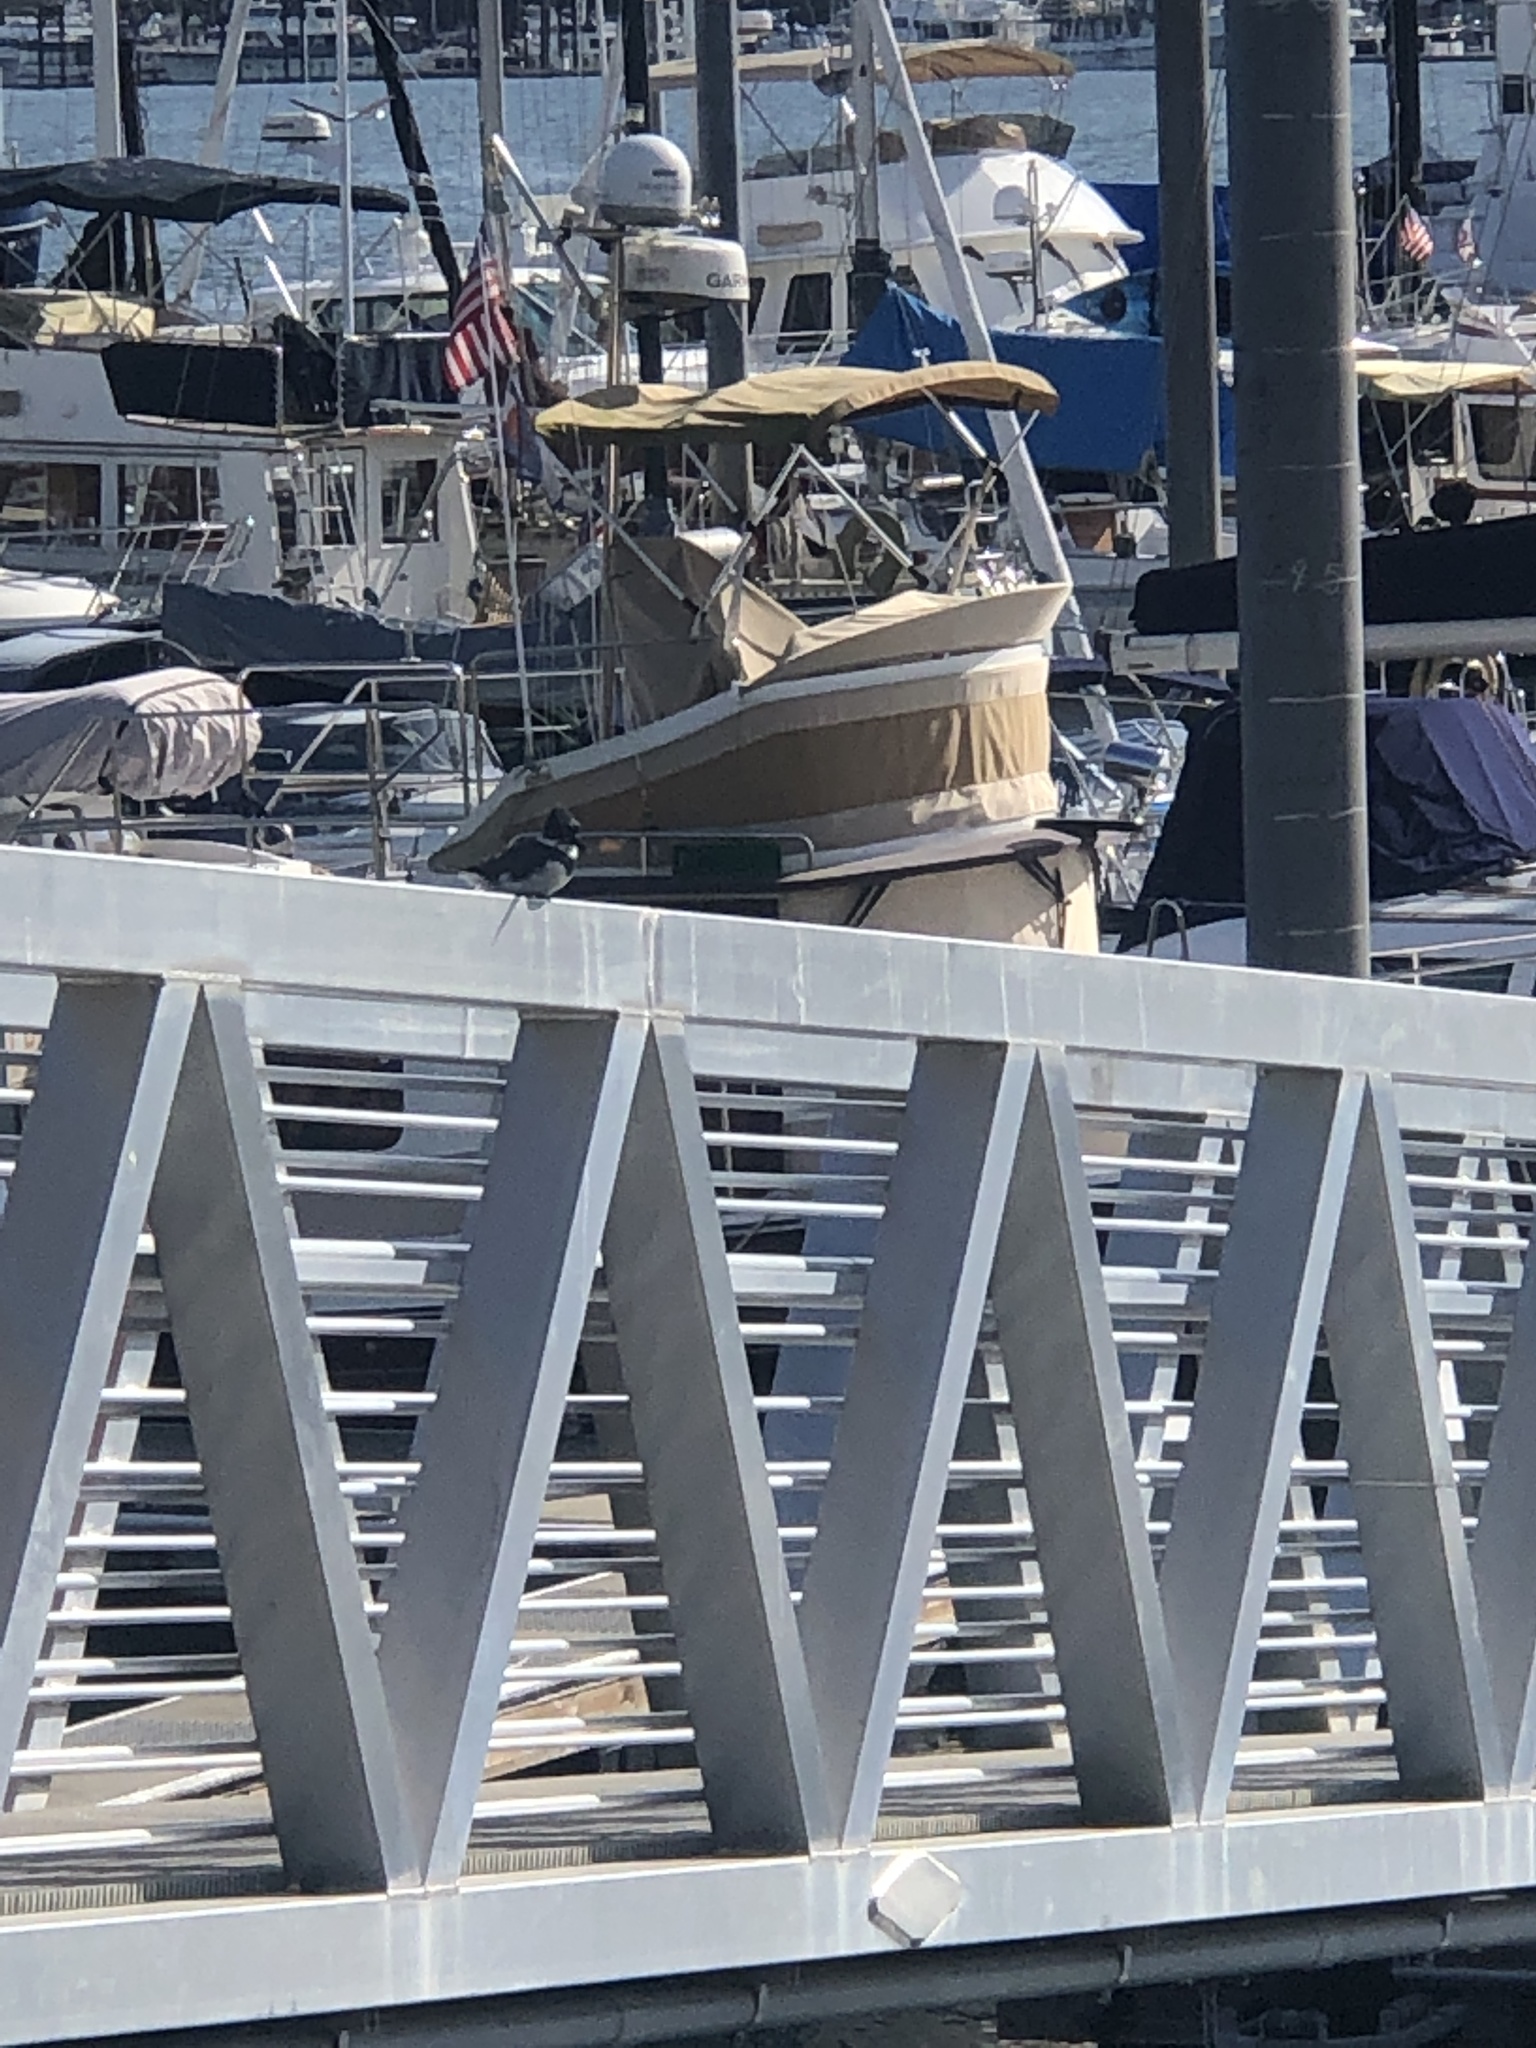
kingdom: Animalia
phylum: Chordata
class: Aves
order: Coraciiformes
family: Alcedinidae
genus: Megaceryle
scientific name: Megaceryle alcyon
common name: Belted kingfisher
